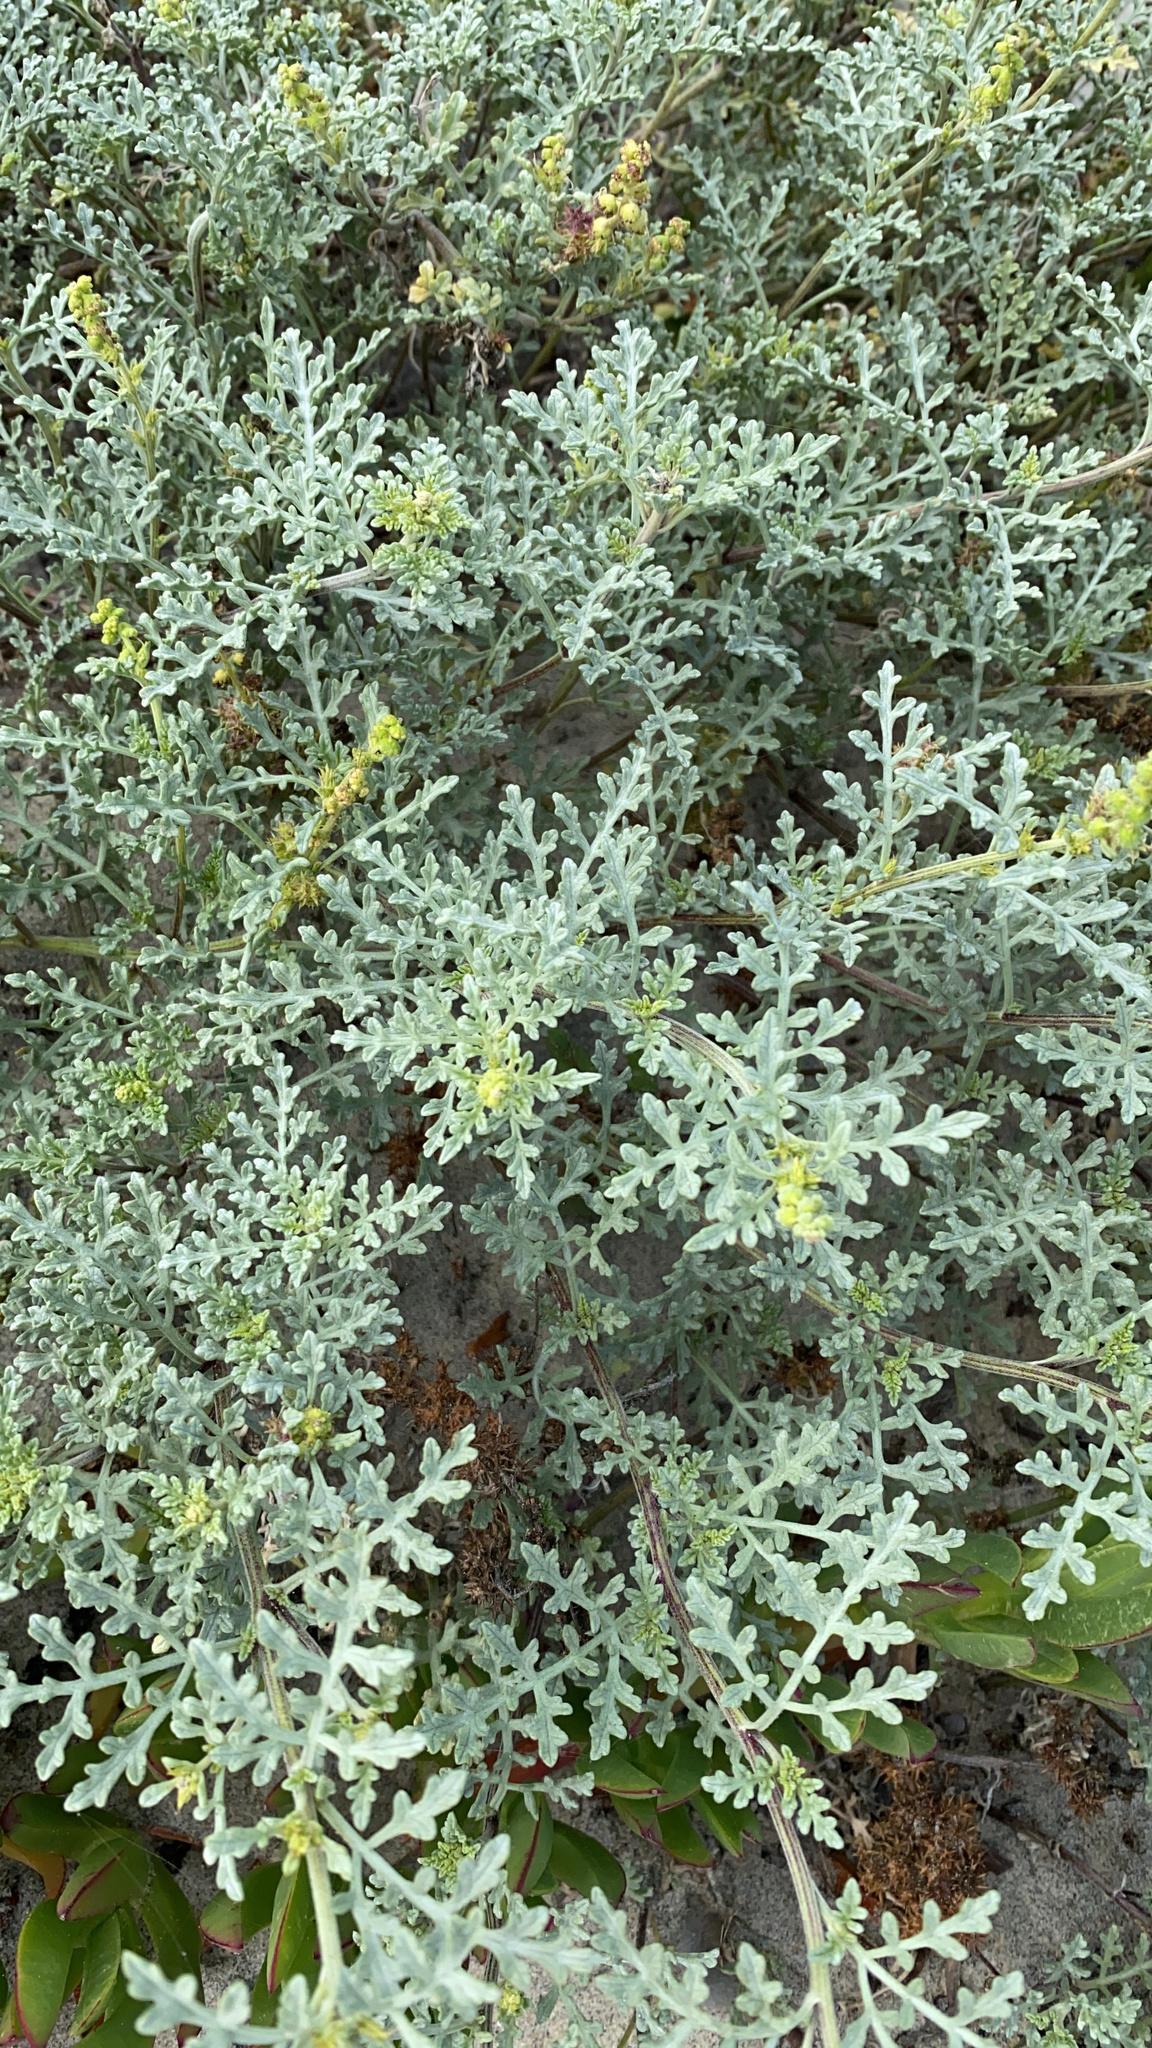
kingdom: Plantae
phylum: Tracheophyta
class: Magnoliopsida
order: Asterales
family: Asteraceae
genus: Ambrosia
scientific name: Ambrosia chamissonis
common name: Beachbur
